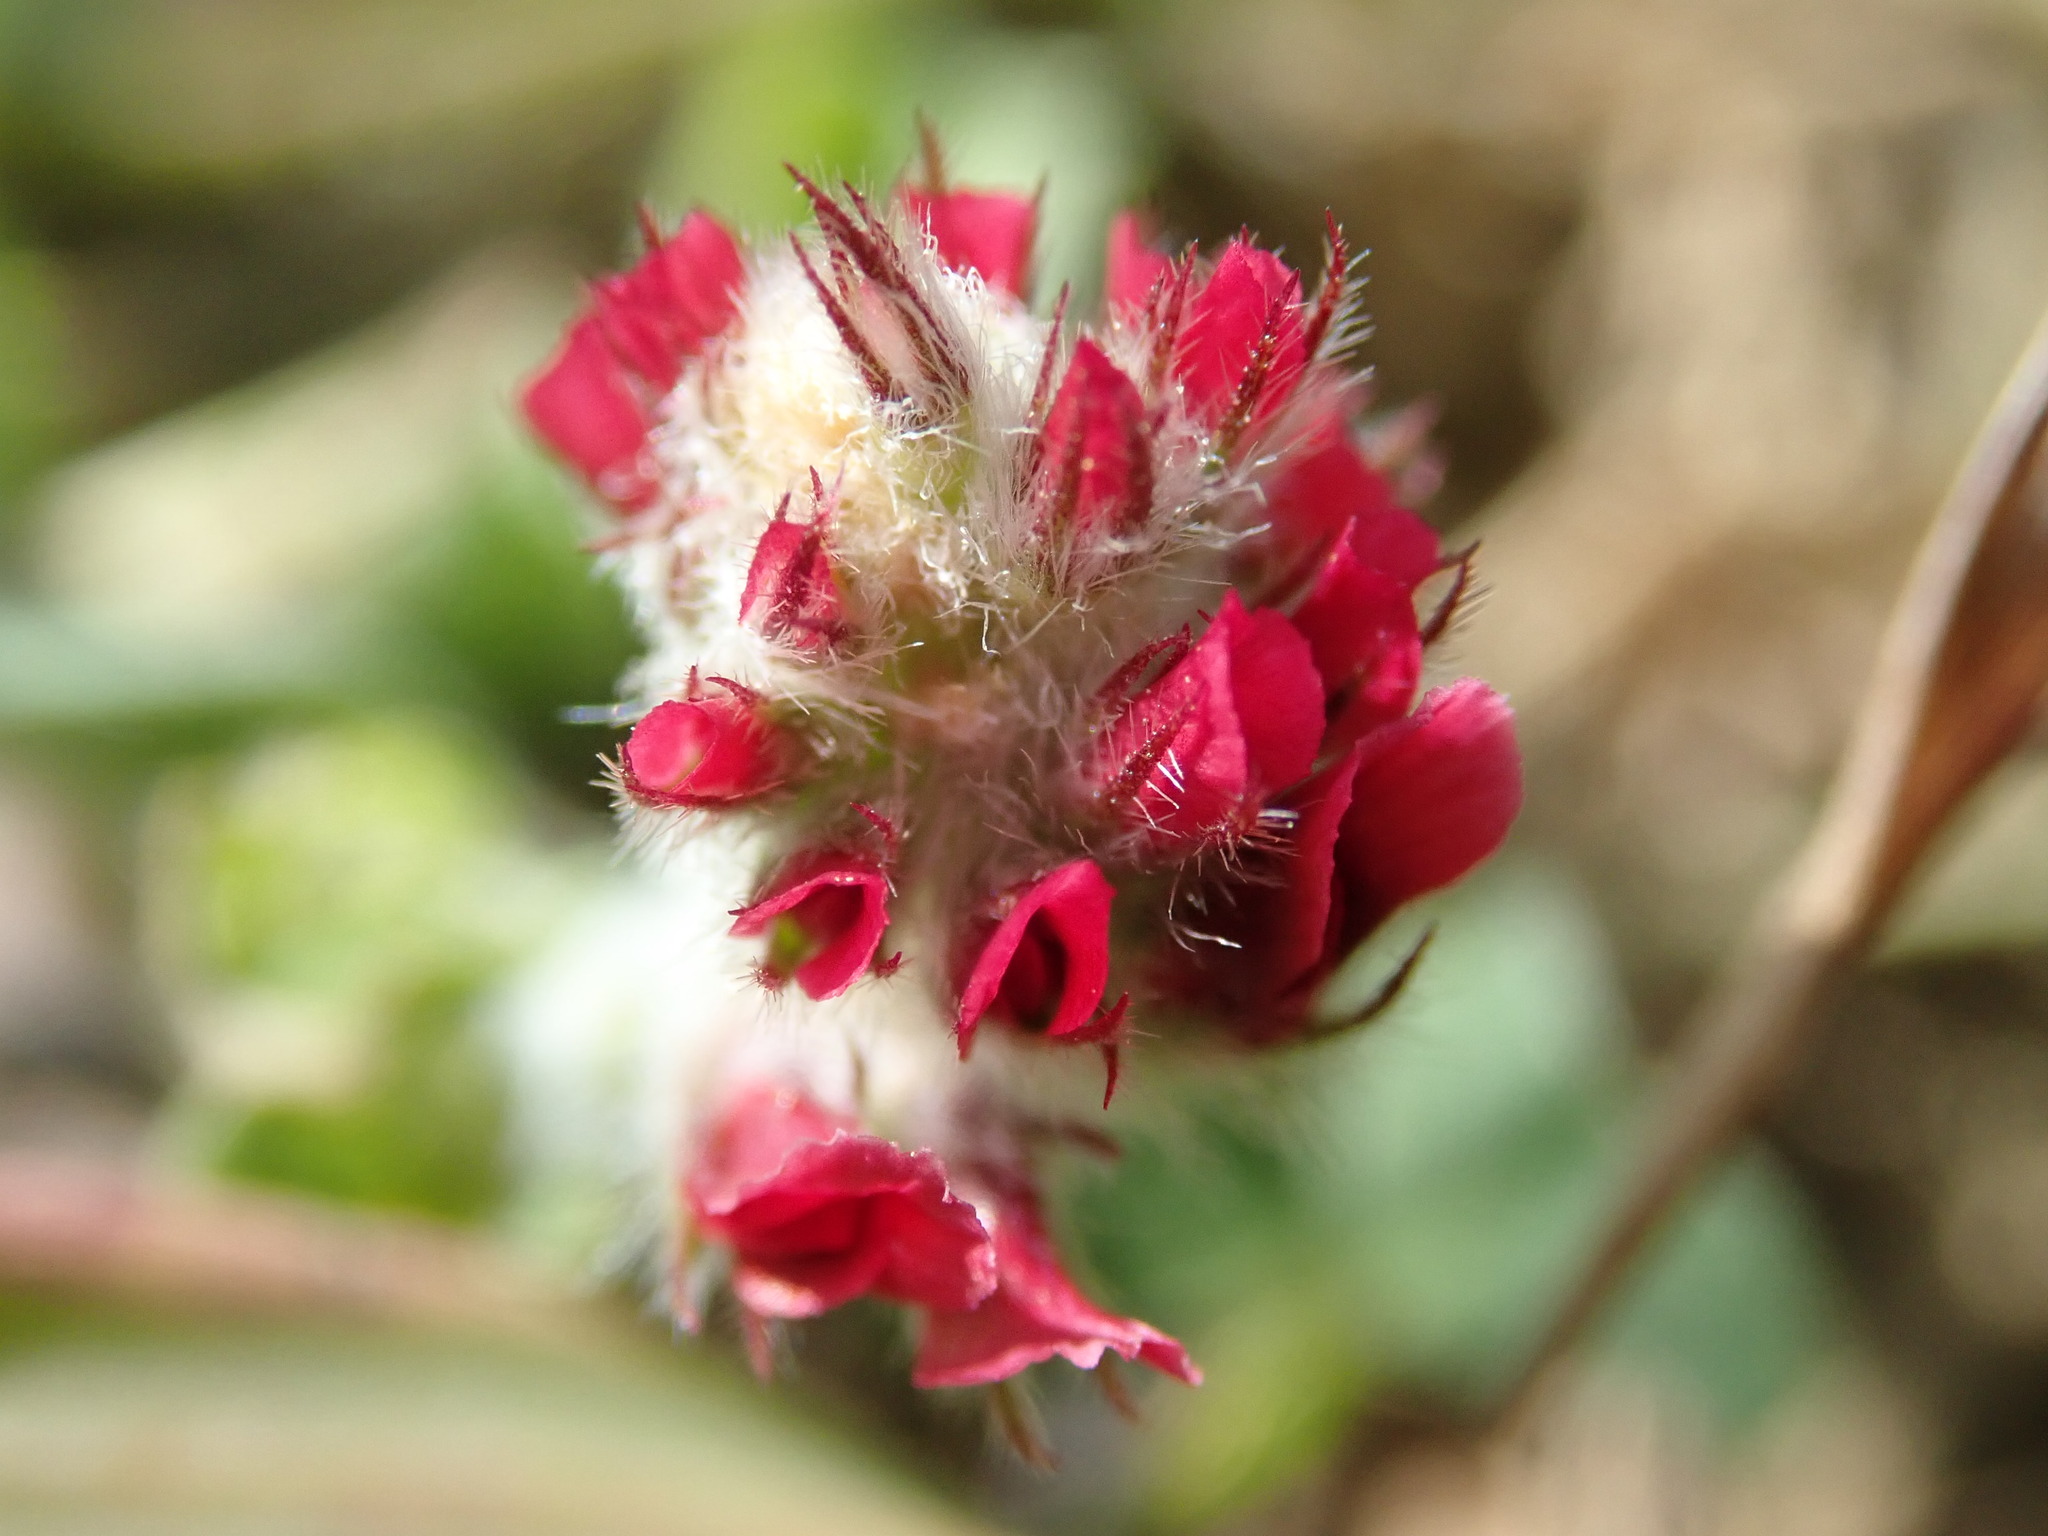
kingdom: Plantae
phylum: Tracheophyta
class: Magnoliopsida
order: Fabales
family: Fabaceae
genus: Trifolium
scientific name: Trifolium incarnatum
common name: Crimson clover
